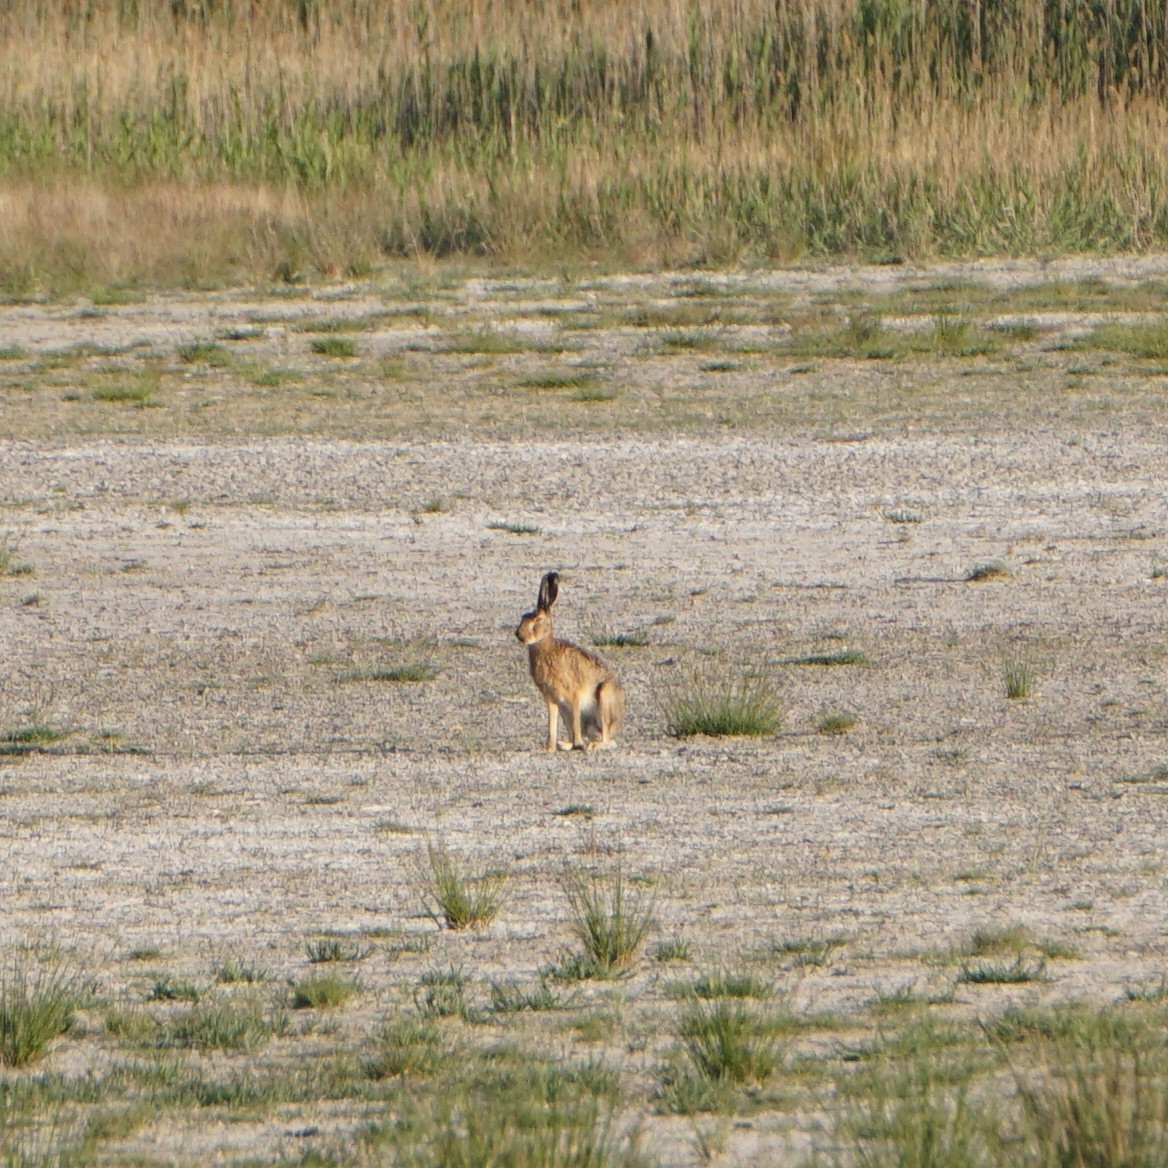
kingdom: Animalia
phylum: Chordata
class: Mammalia
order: Lagomorpha
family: Leporidae
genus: Lepus
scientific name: Lepus europaeus
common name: European hare
